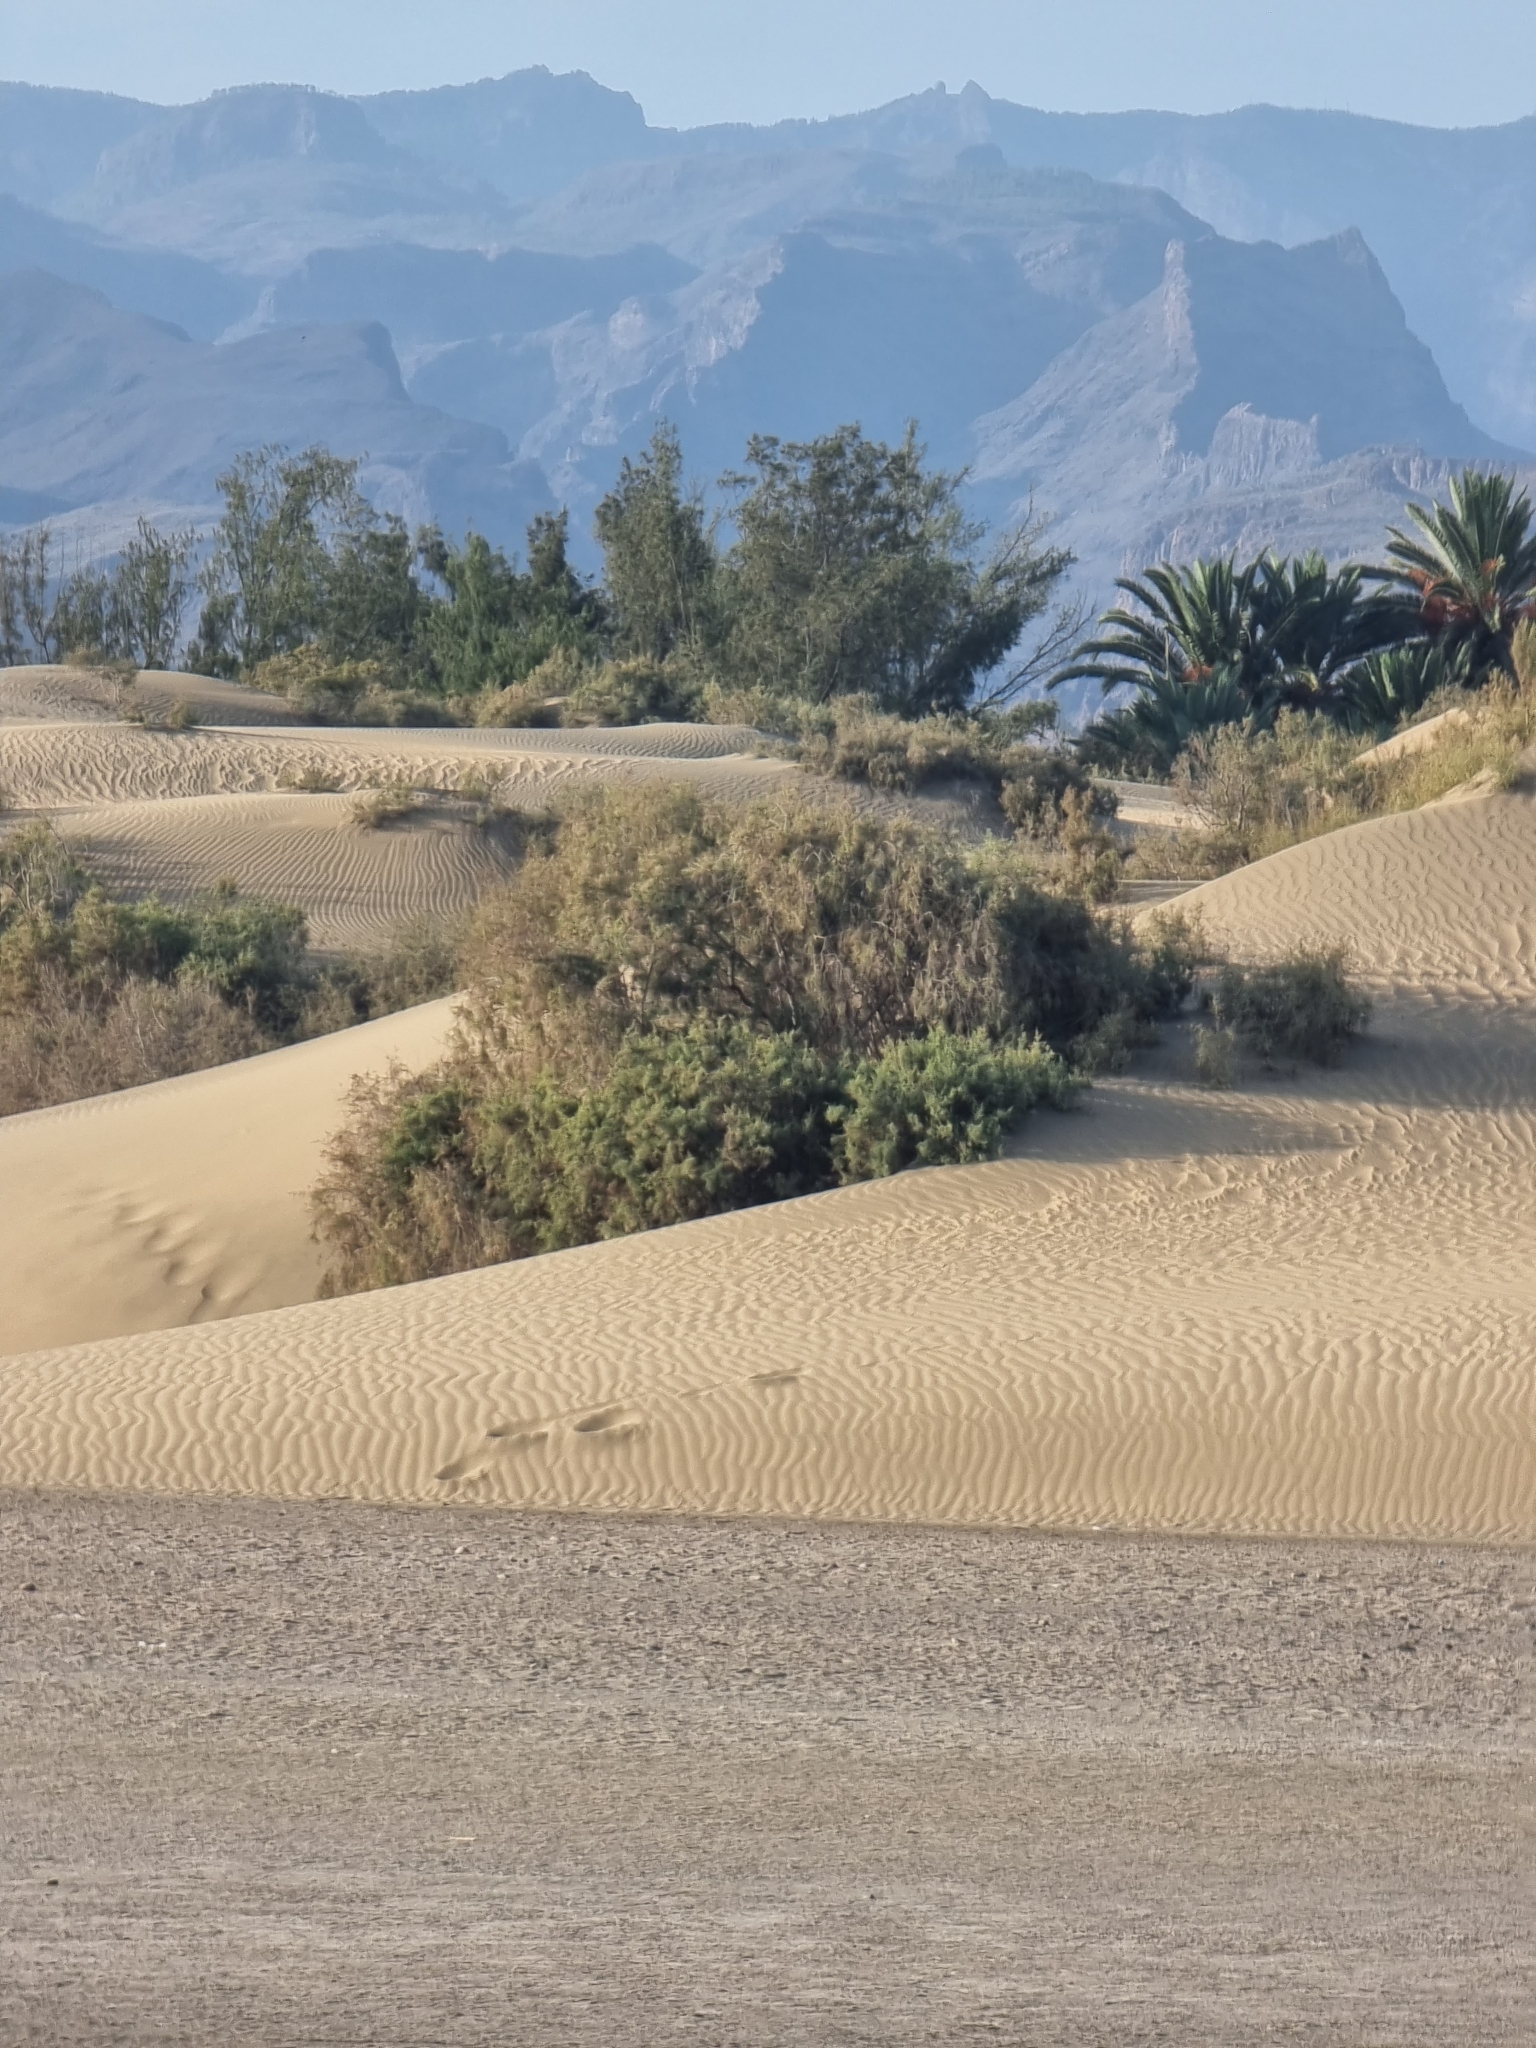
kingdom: Plantae
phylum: Tracheophyta
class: Magnoliopsida
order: Caryophyllales
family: Tamaricaceae
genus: Tamarix
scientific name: Tamarix canariensis
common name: Canary island tamarisk
